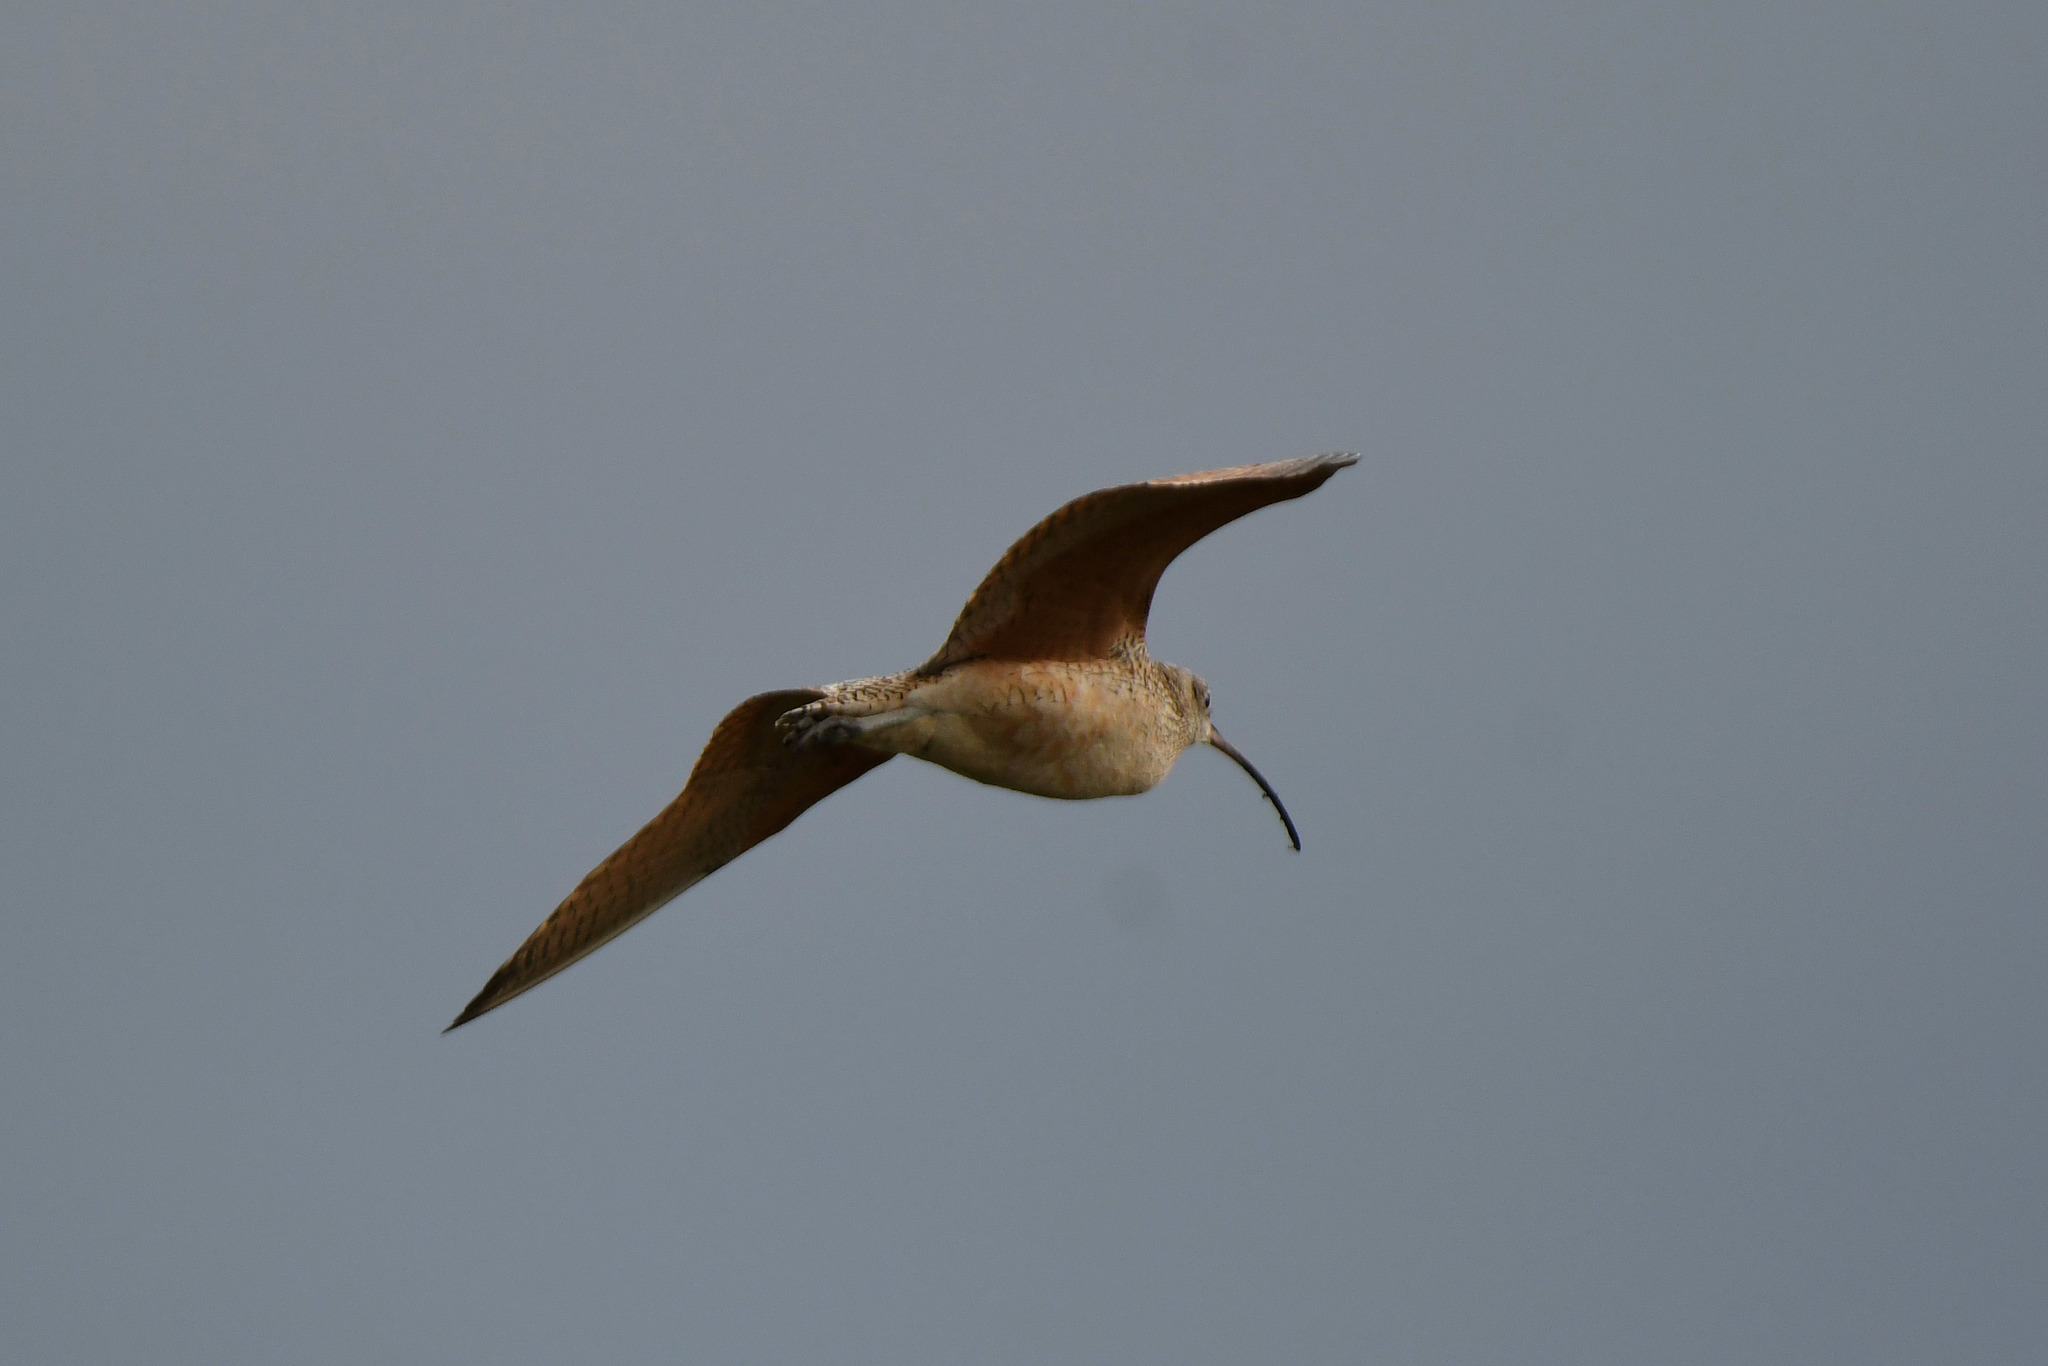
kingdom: Animalia
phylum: Chordata
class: Aves
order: Charadriiformes
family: Scolopacidae
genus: Numenius
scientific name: Numenius americanus
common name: Long-billed curlew
